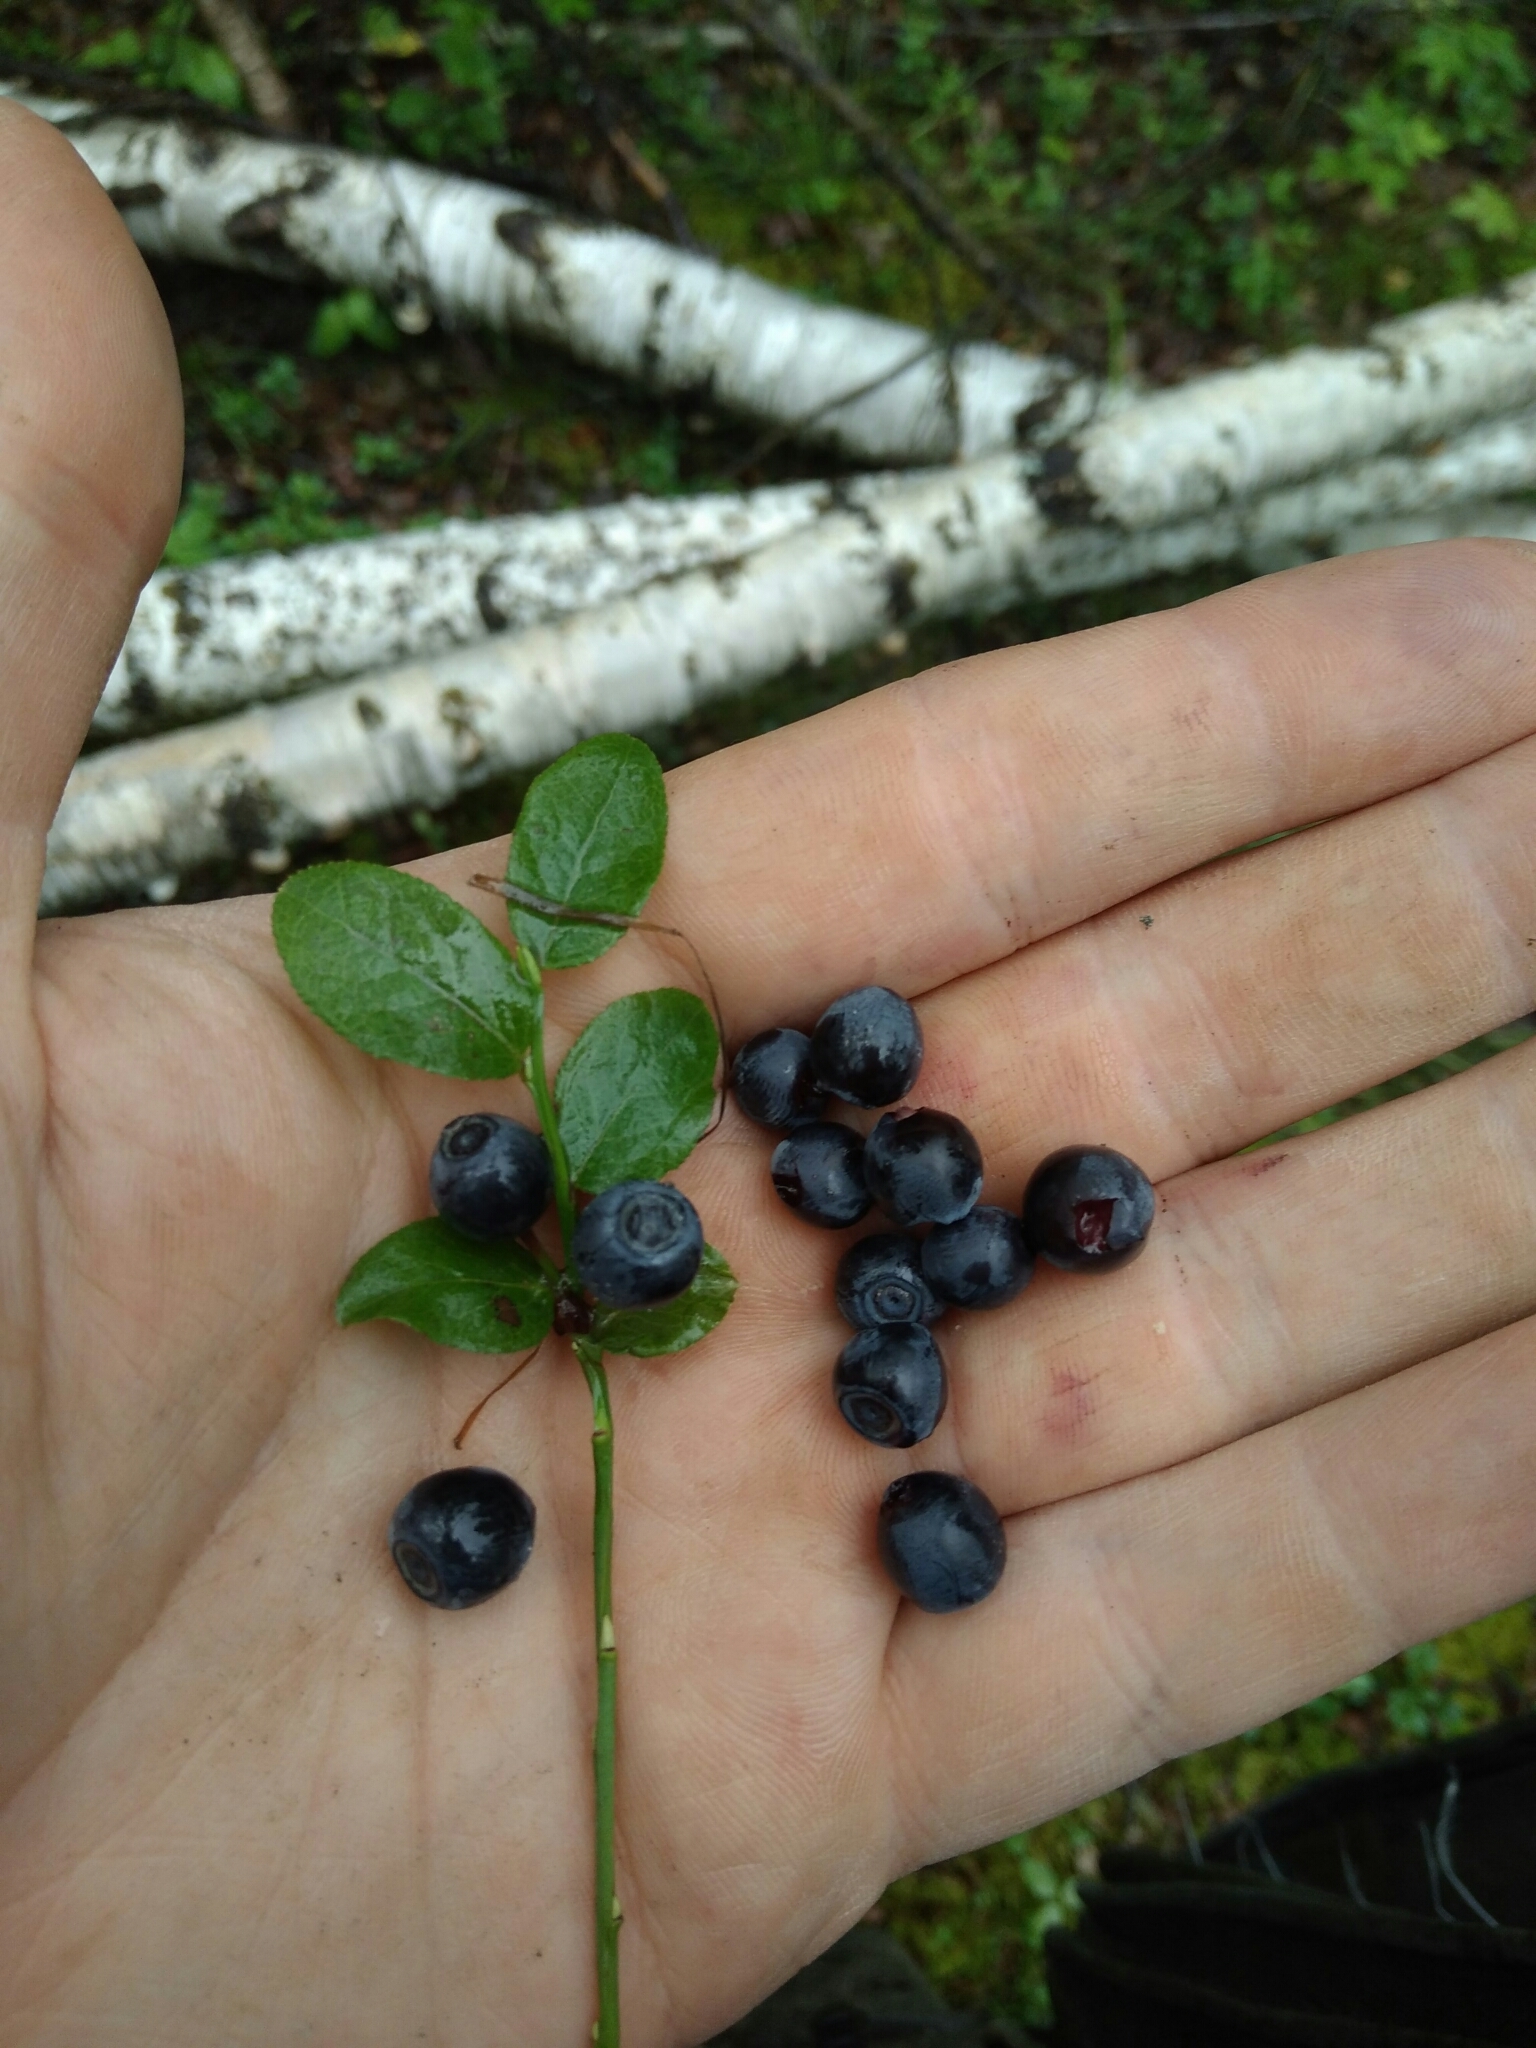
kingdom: Plantae
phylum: Tracheophyta
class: Magnoliopsida
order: Ericales
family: Ericaceae
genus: Vaccinium
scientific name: Vaccinium myrtillus
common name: Bilberry
